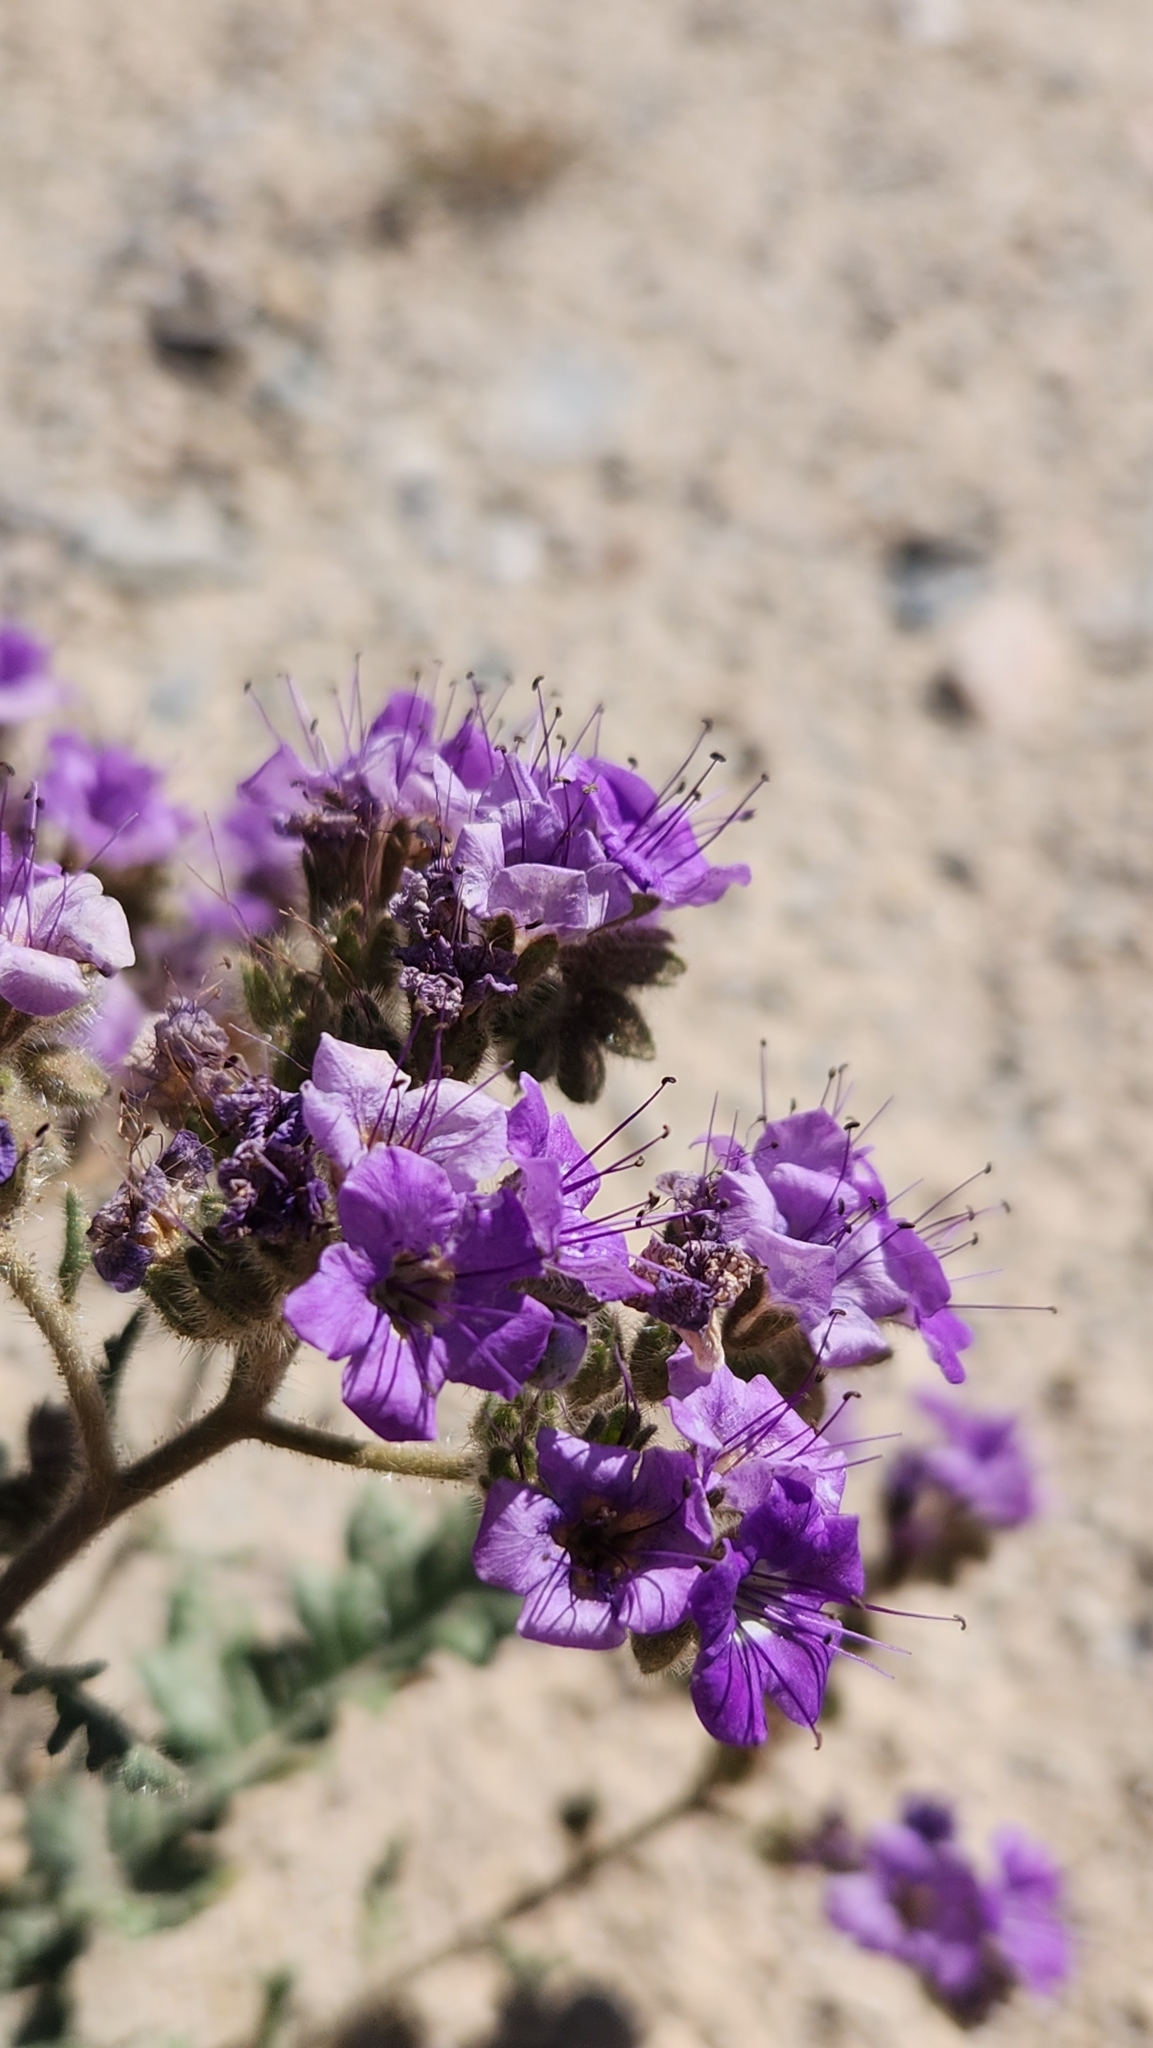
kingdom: Plantae
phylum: Tracheophyta
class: Magnoliopsida
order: Boraginales
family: Hydrophyllaceae
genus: Phacelia
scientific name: Phacelia crenulata
